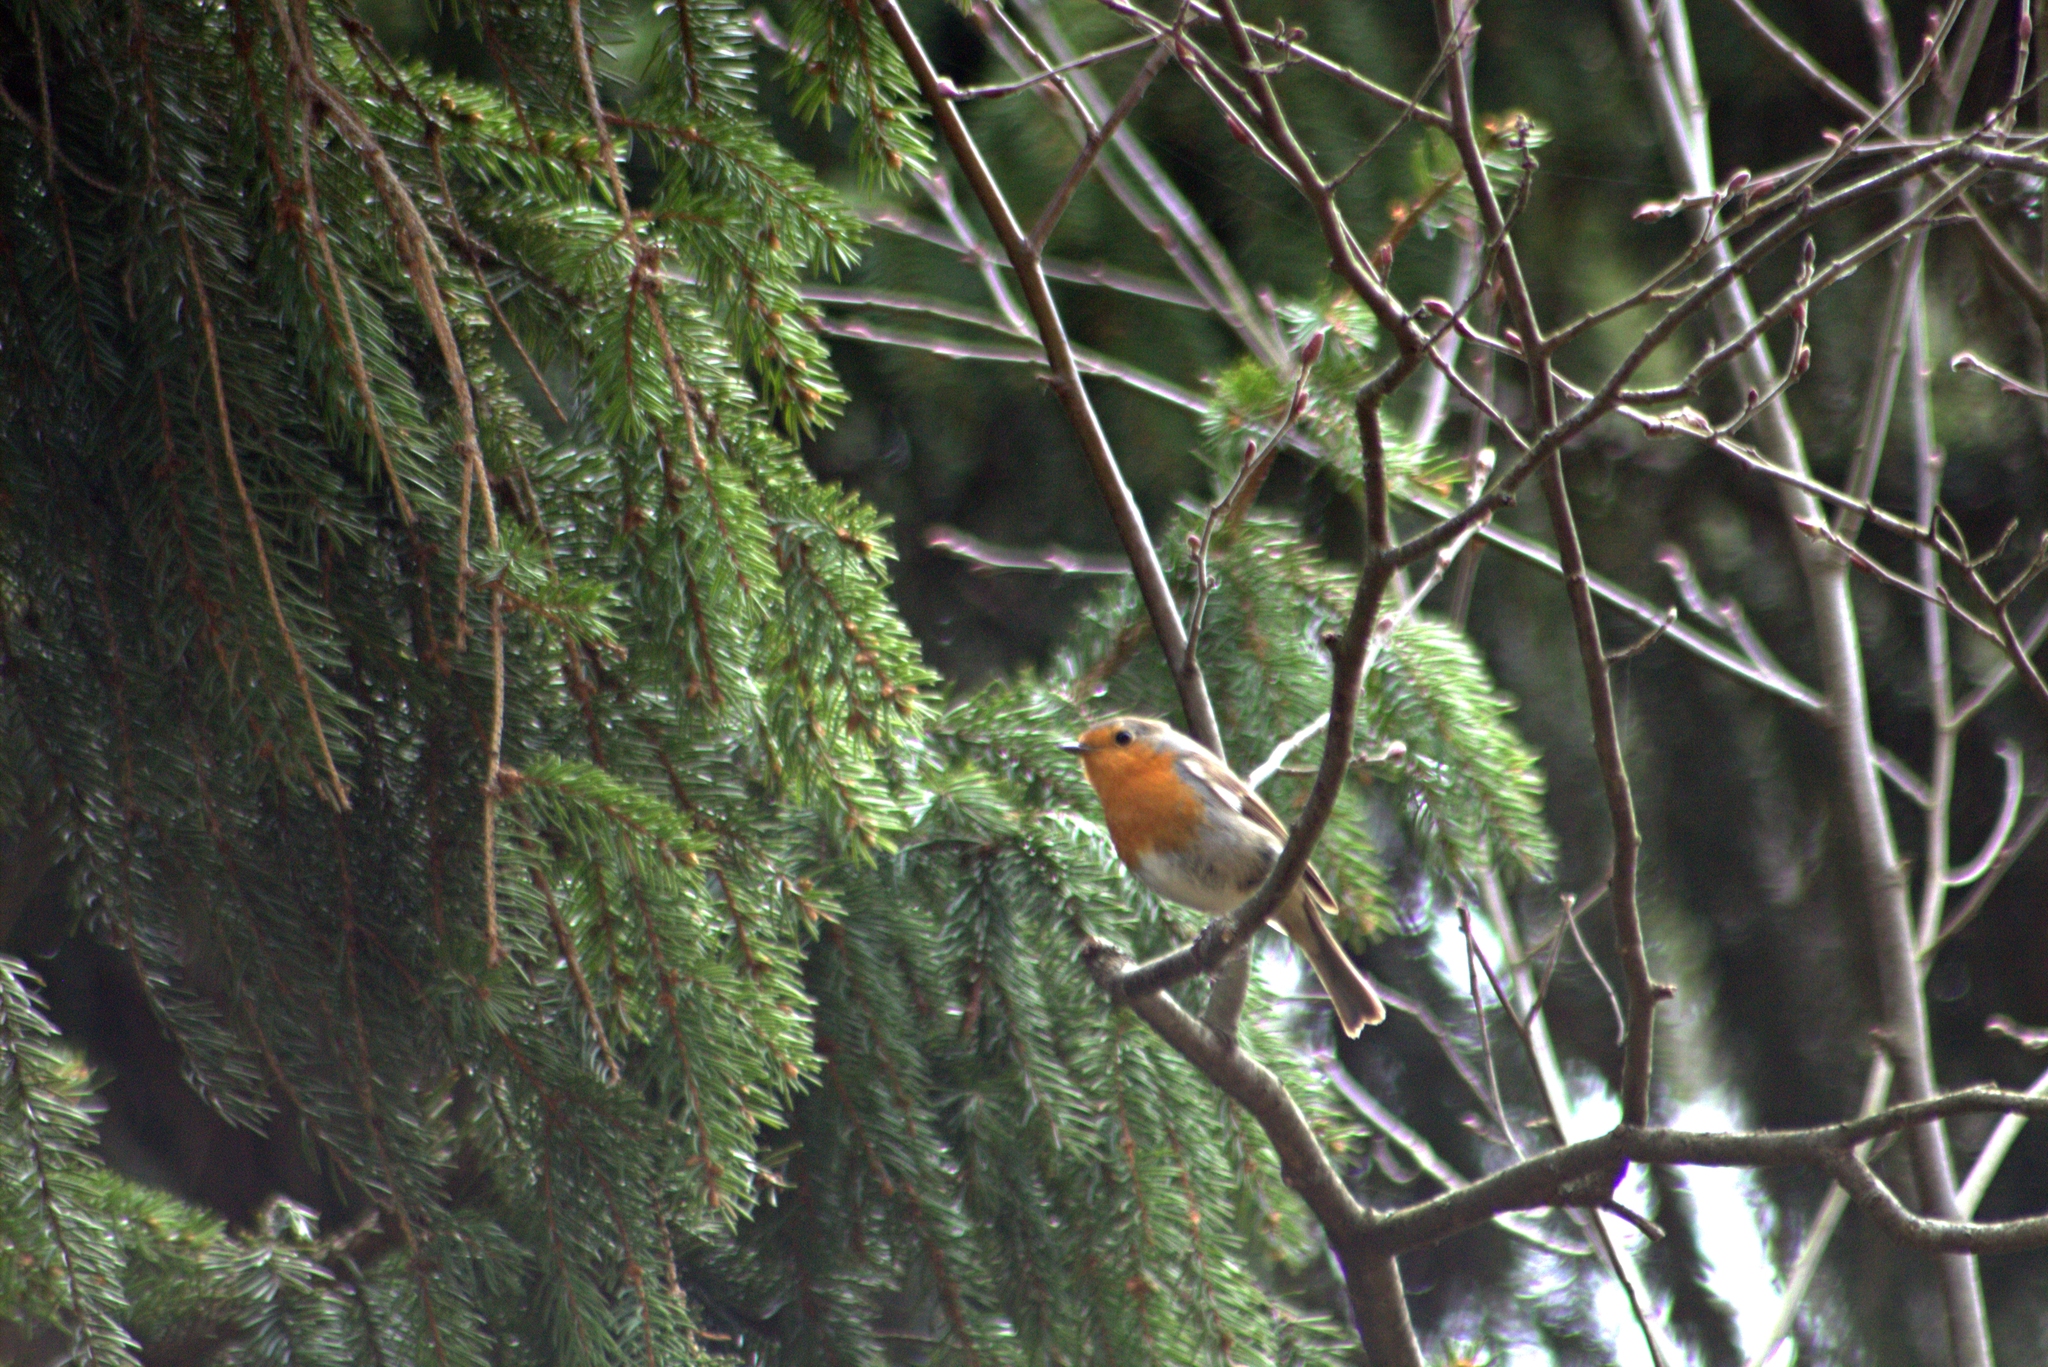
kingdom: Animalia
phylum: Chordata
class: Aves
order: Passeriformes
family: Muscicapidae
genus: Erithacus
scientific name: Erithacus rubecula
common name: European robin
